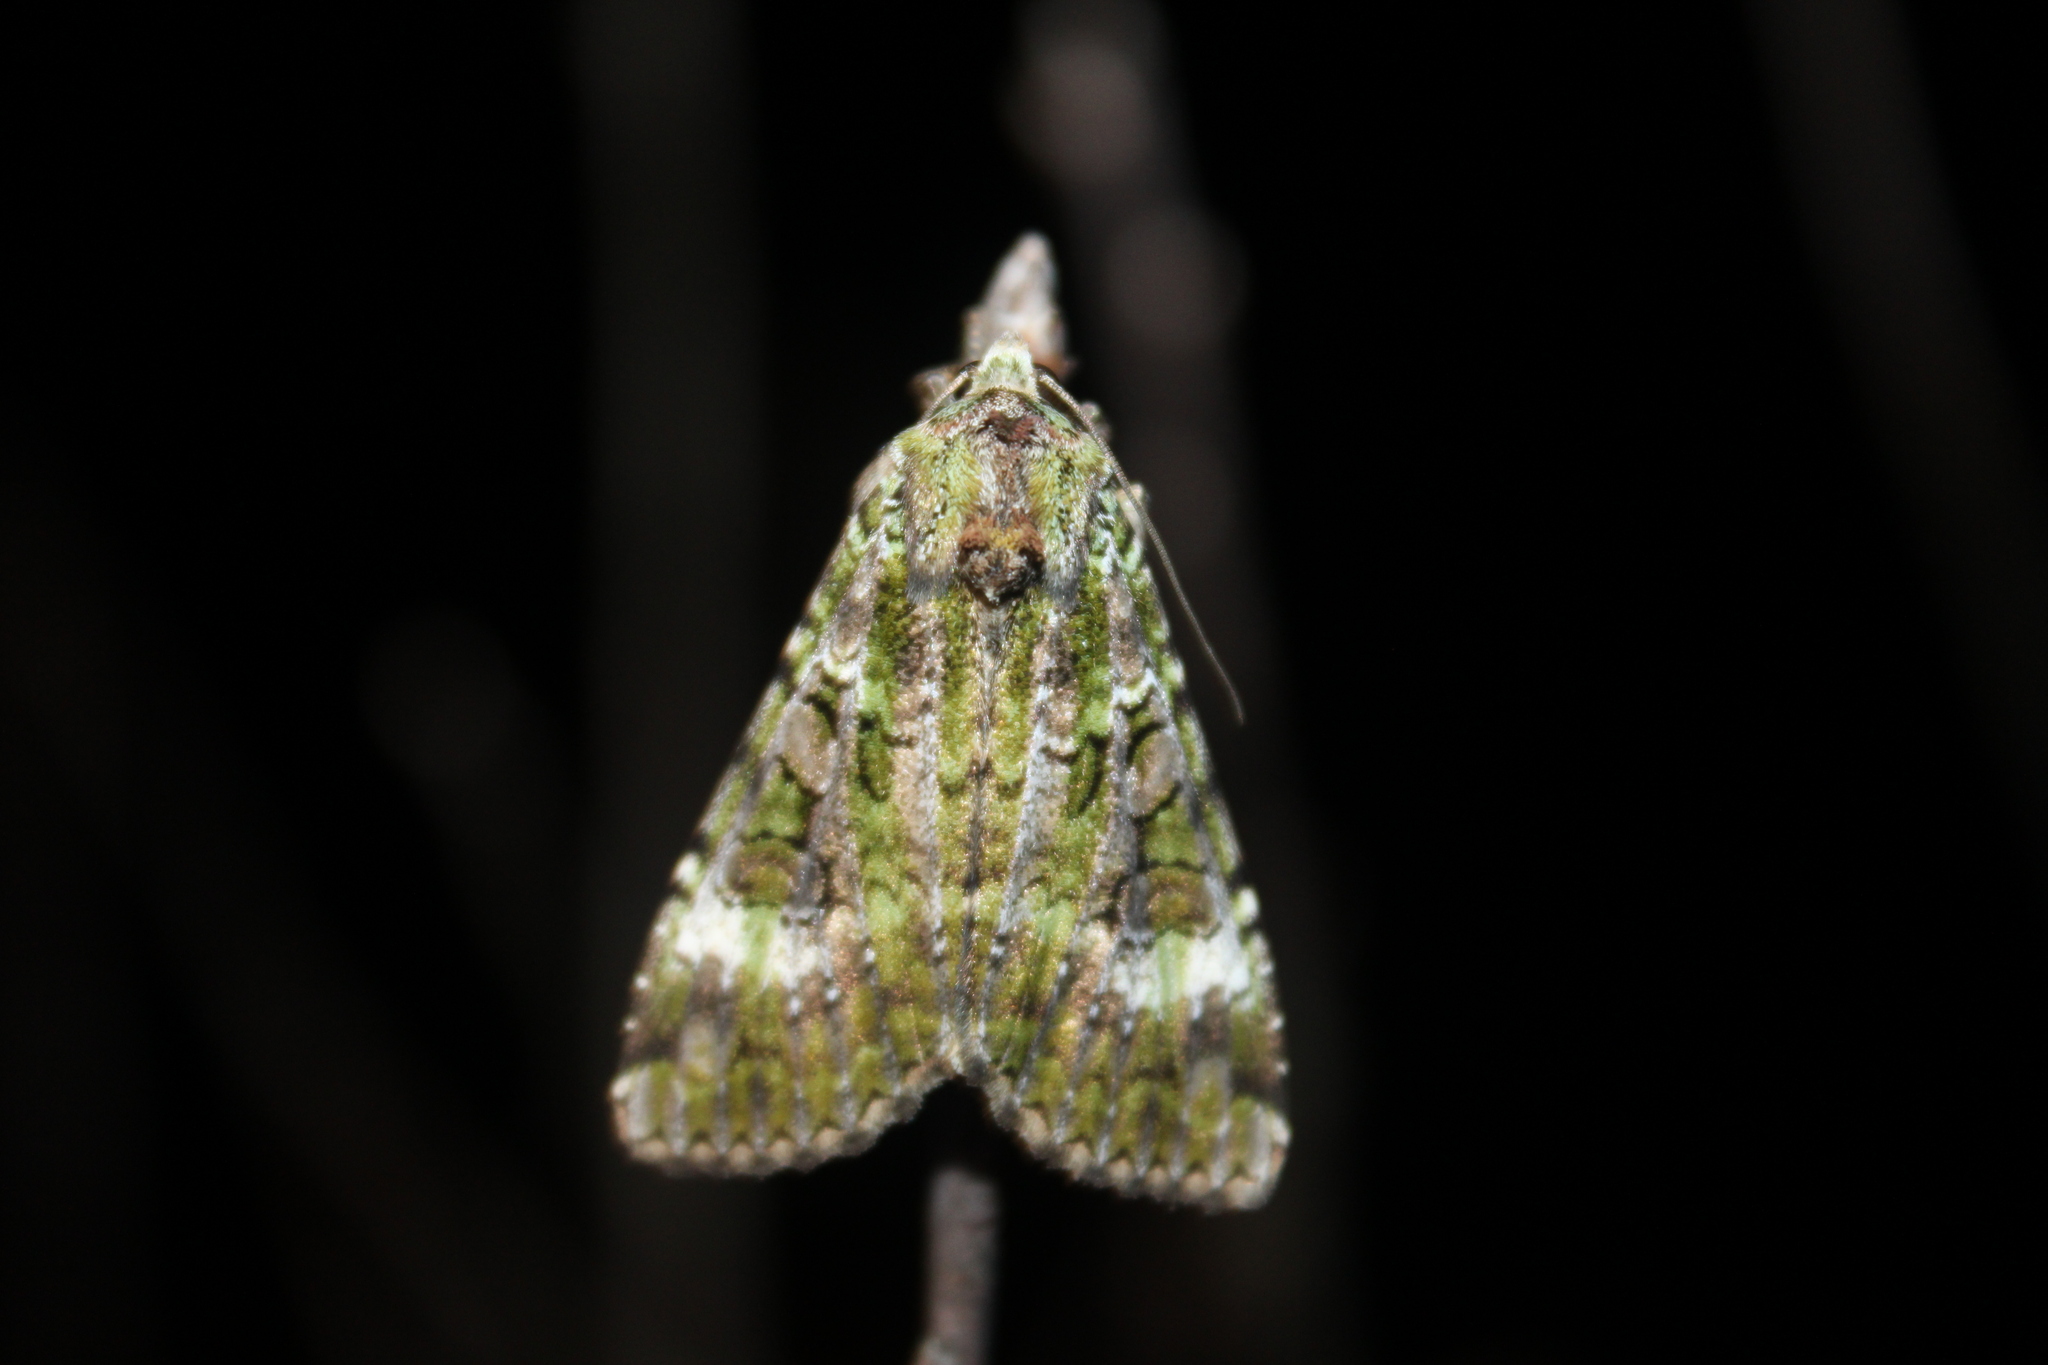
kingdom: Animalia
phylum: Arthropoda
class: Insecta
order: Lepidoptera
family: Noctuidae
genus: Anaplectoides
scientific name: Anaplectoides prasina
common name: Green arches
